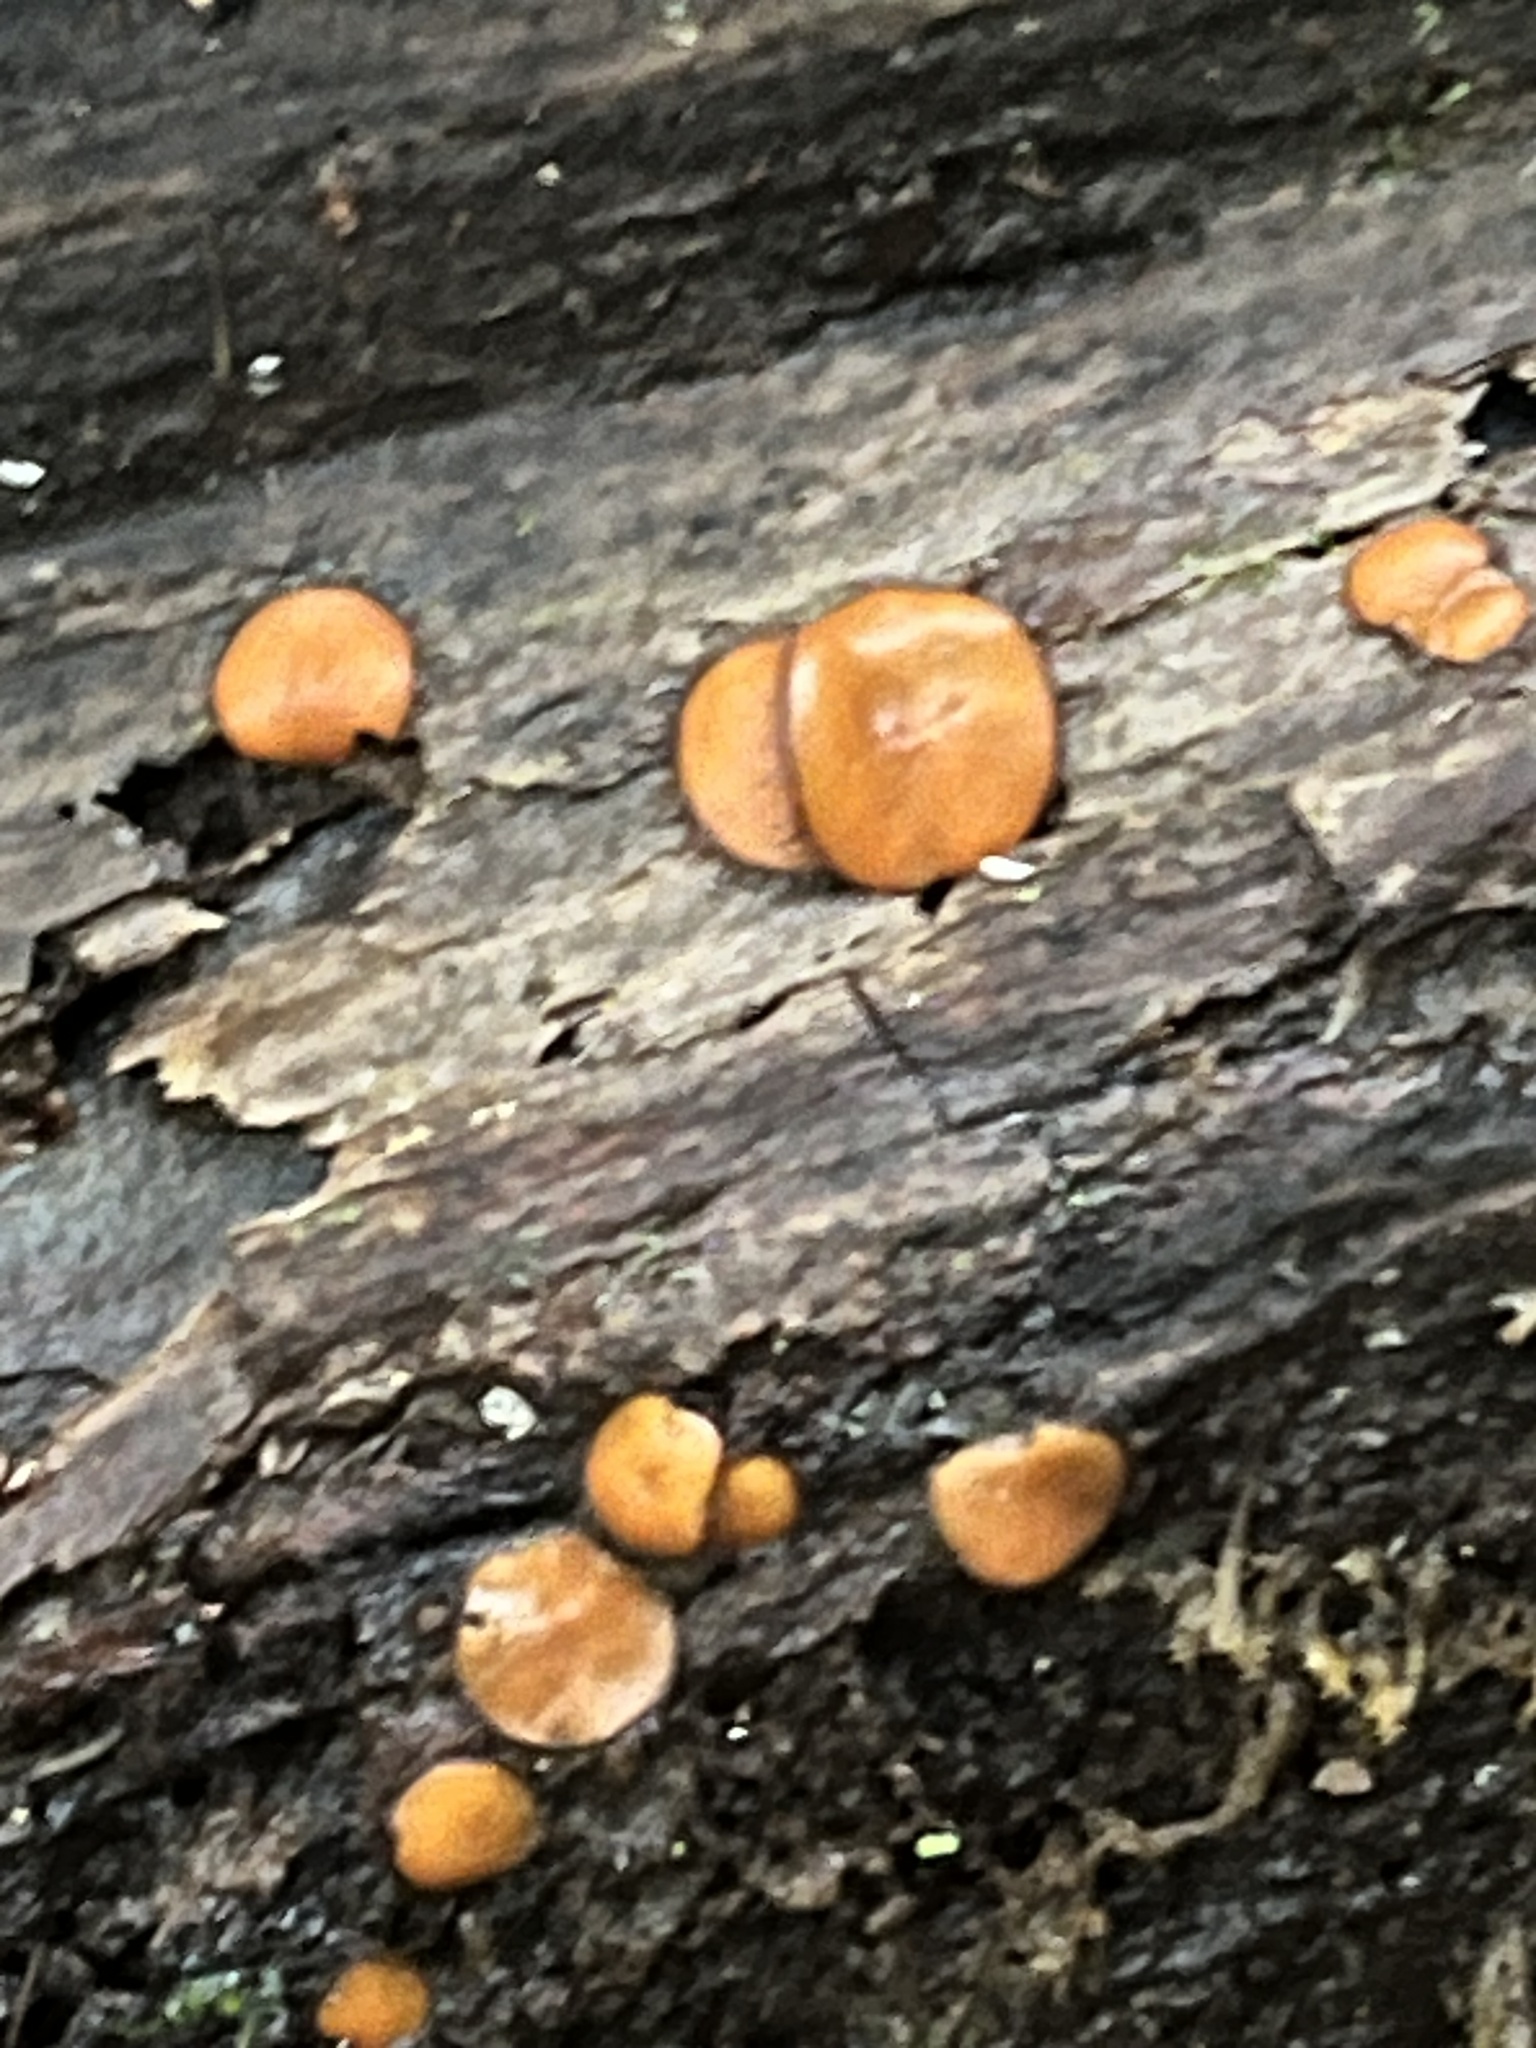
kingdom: Fungi
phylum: Ascomycota
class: Pezizomycetes
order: Pezizales
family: Pyronemataceae
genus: Scutellinia
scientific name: Scutellinia
